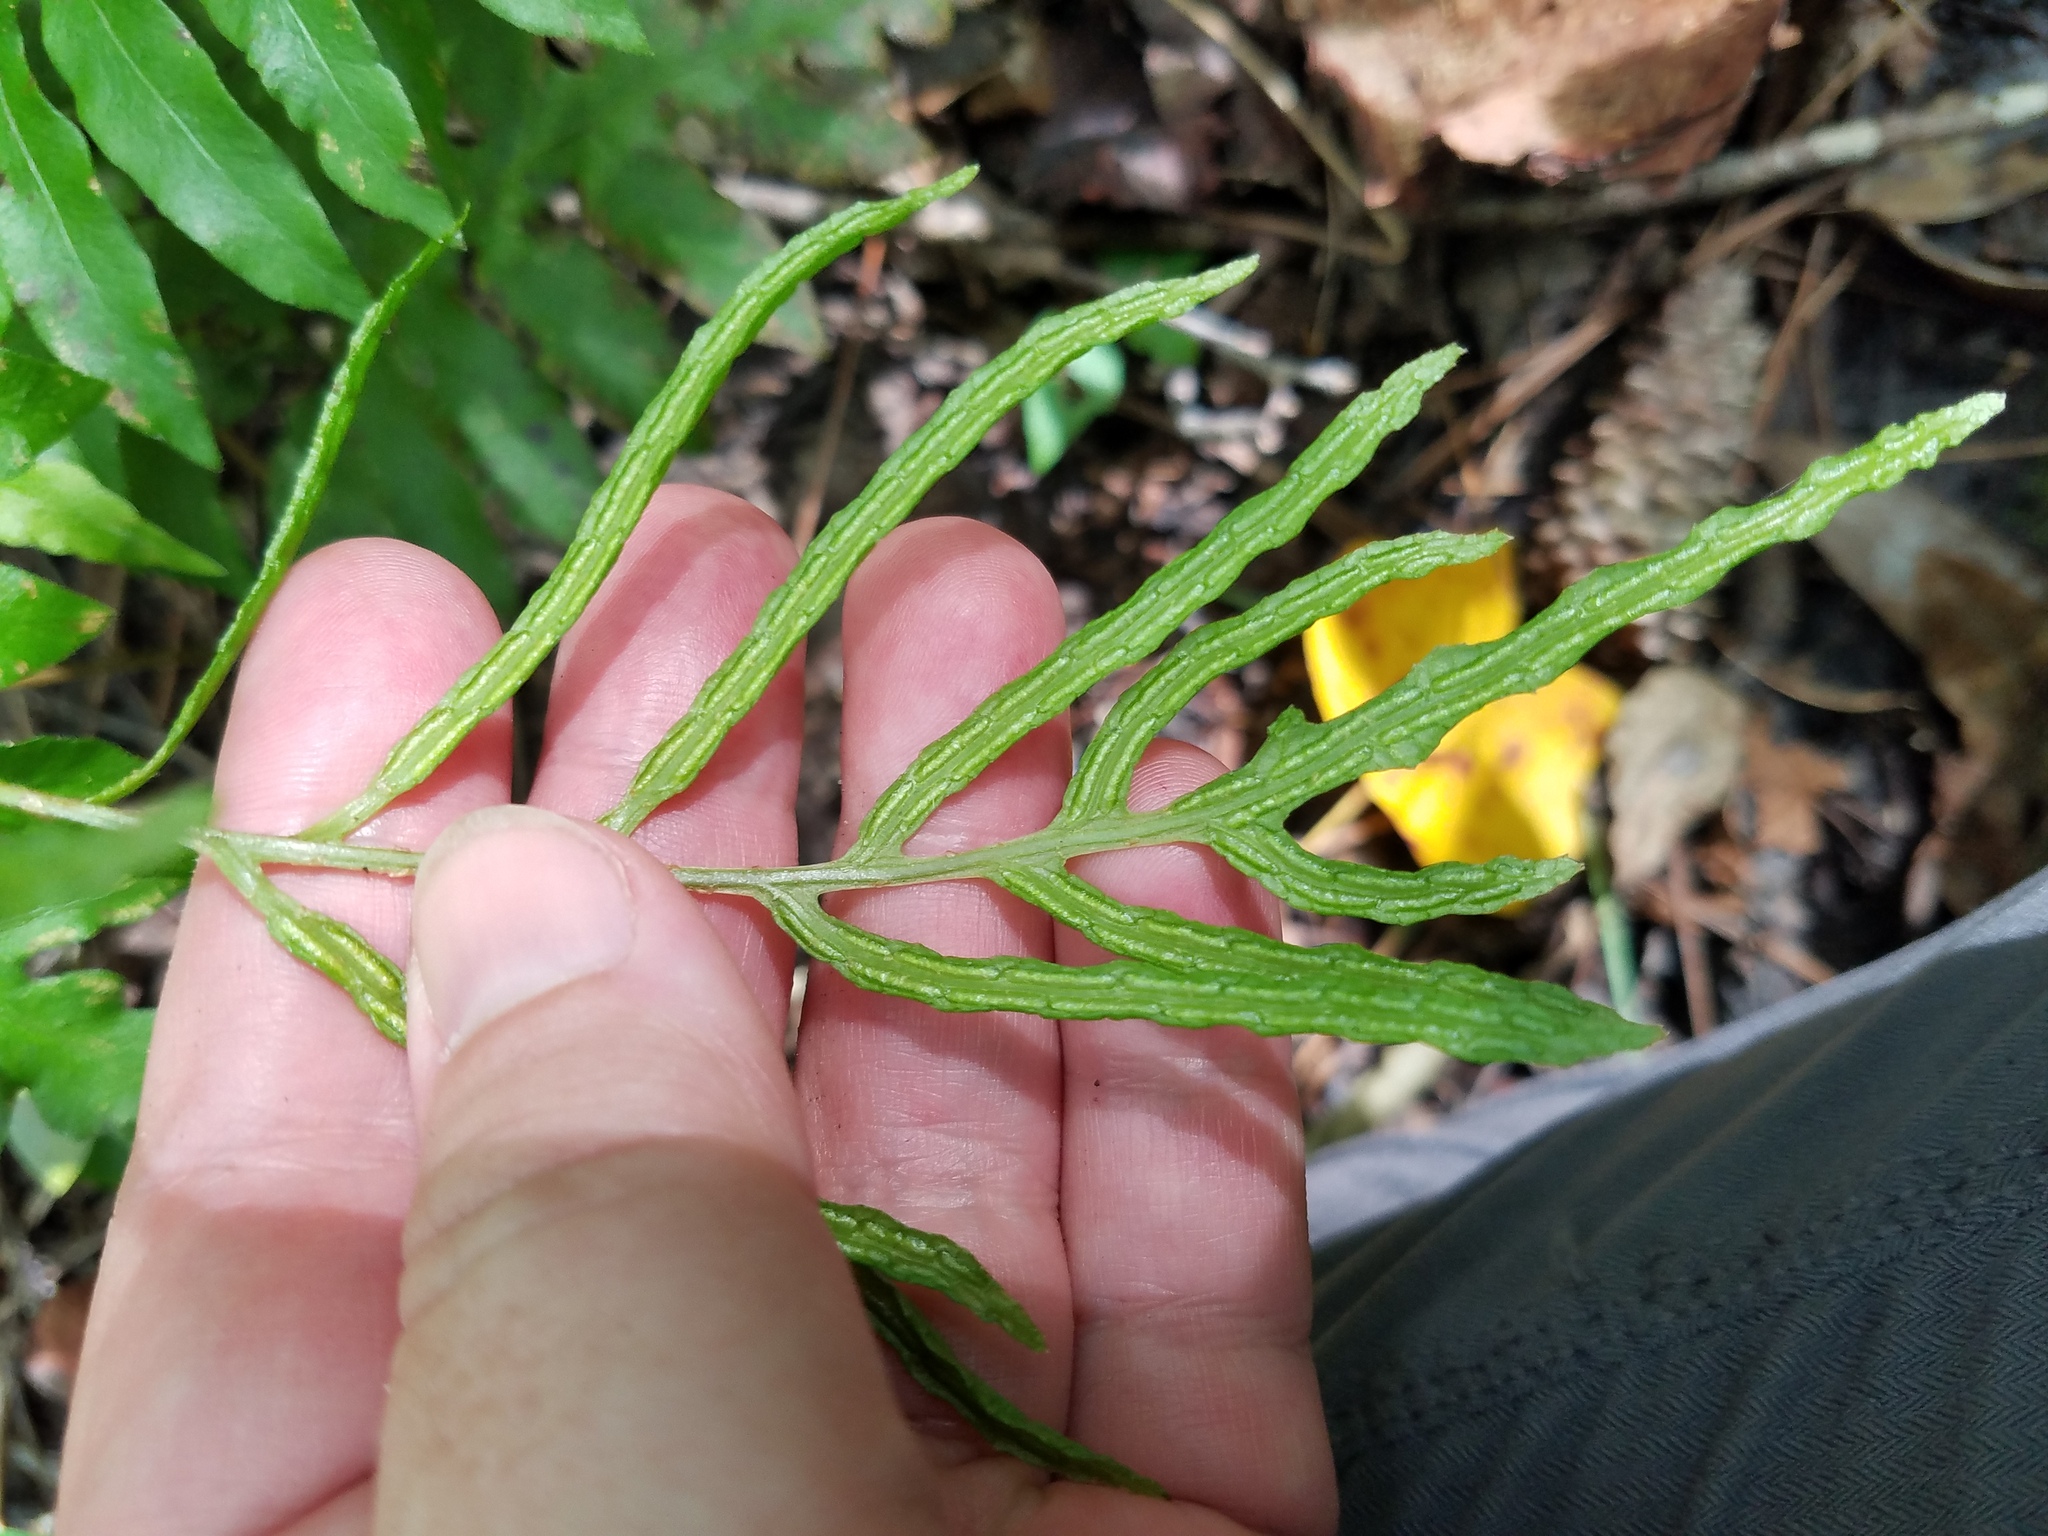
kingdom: Plantae
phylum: Tracheophyta
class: Polypodiopsida
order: Polypodiales
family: Blechnaceae
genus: Lorinseria
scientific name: Lorinseria areolata
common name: Dwarf chain fern
